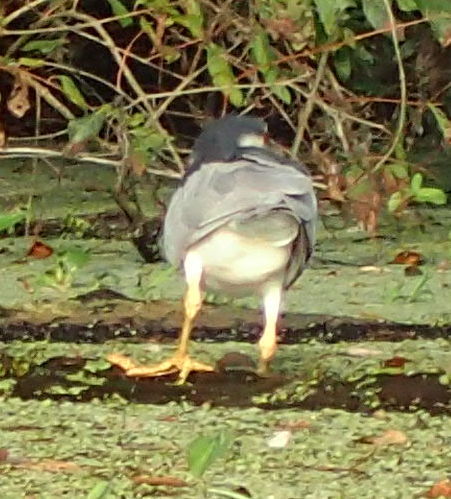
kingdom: Animalia
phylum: Chordata
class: Aves
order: Pelecaniformes
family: Ardeidae
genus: Nycticorax
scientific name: Nycticorax nycticorax
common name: Black-crowned night heron
